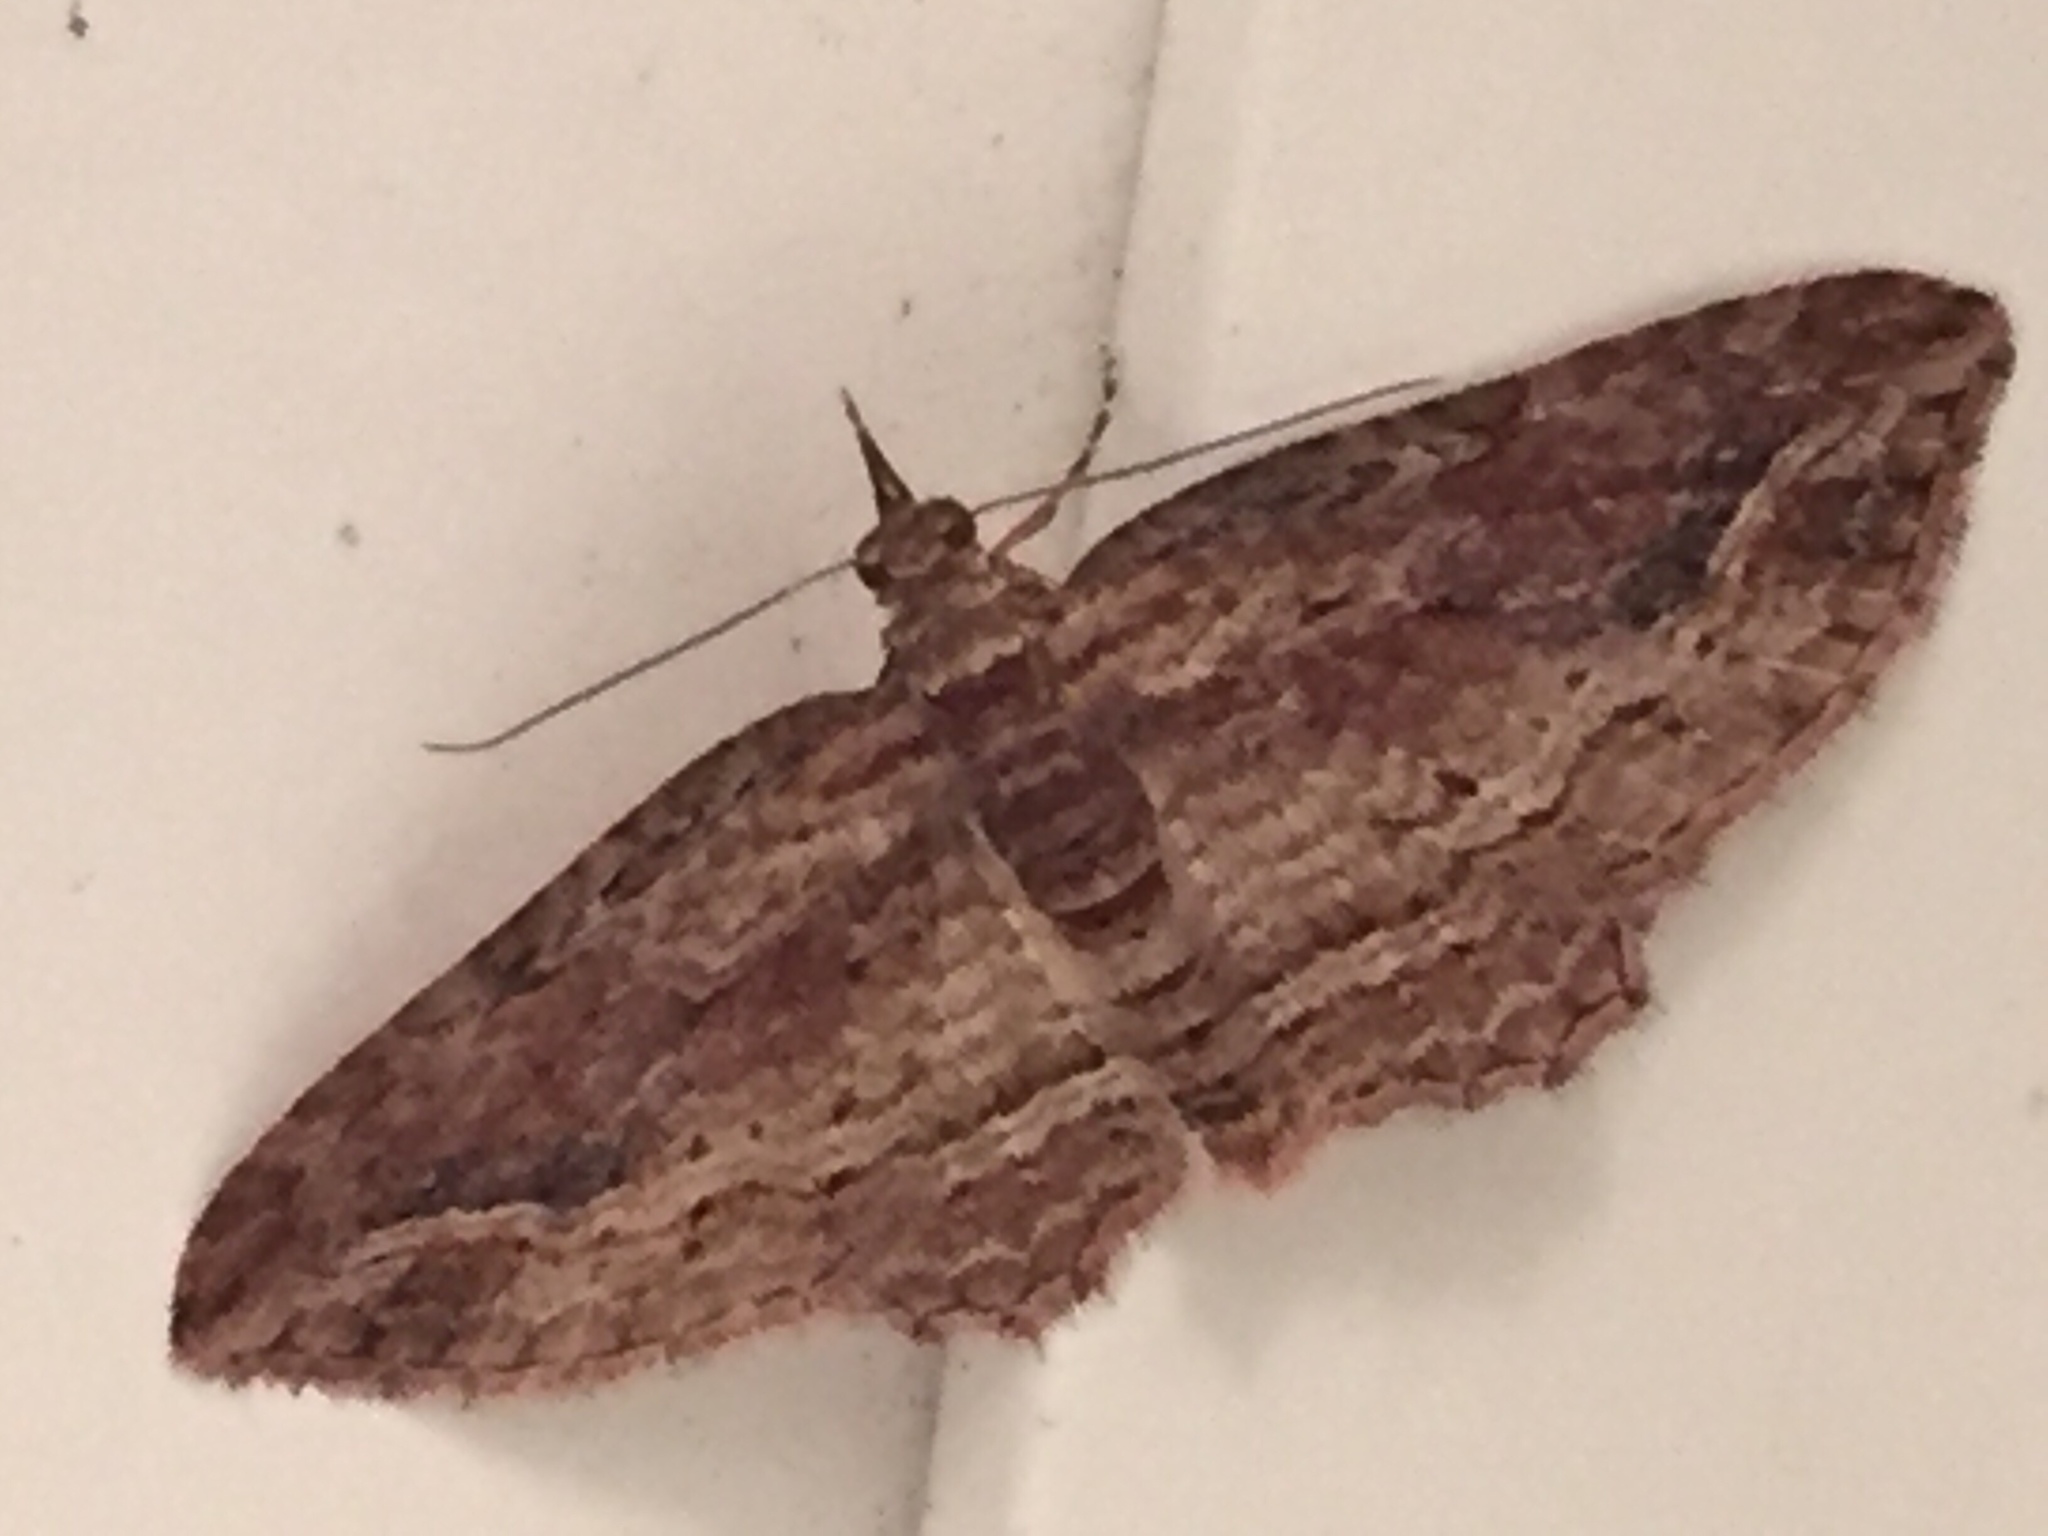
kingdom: Animalia
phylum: Arthropoda
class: Insecta
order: Lepidoptera
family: Geometridae
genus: Chloroclystis
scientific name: Chloroclystis filata
